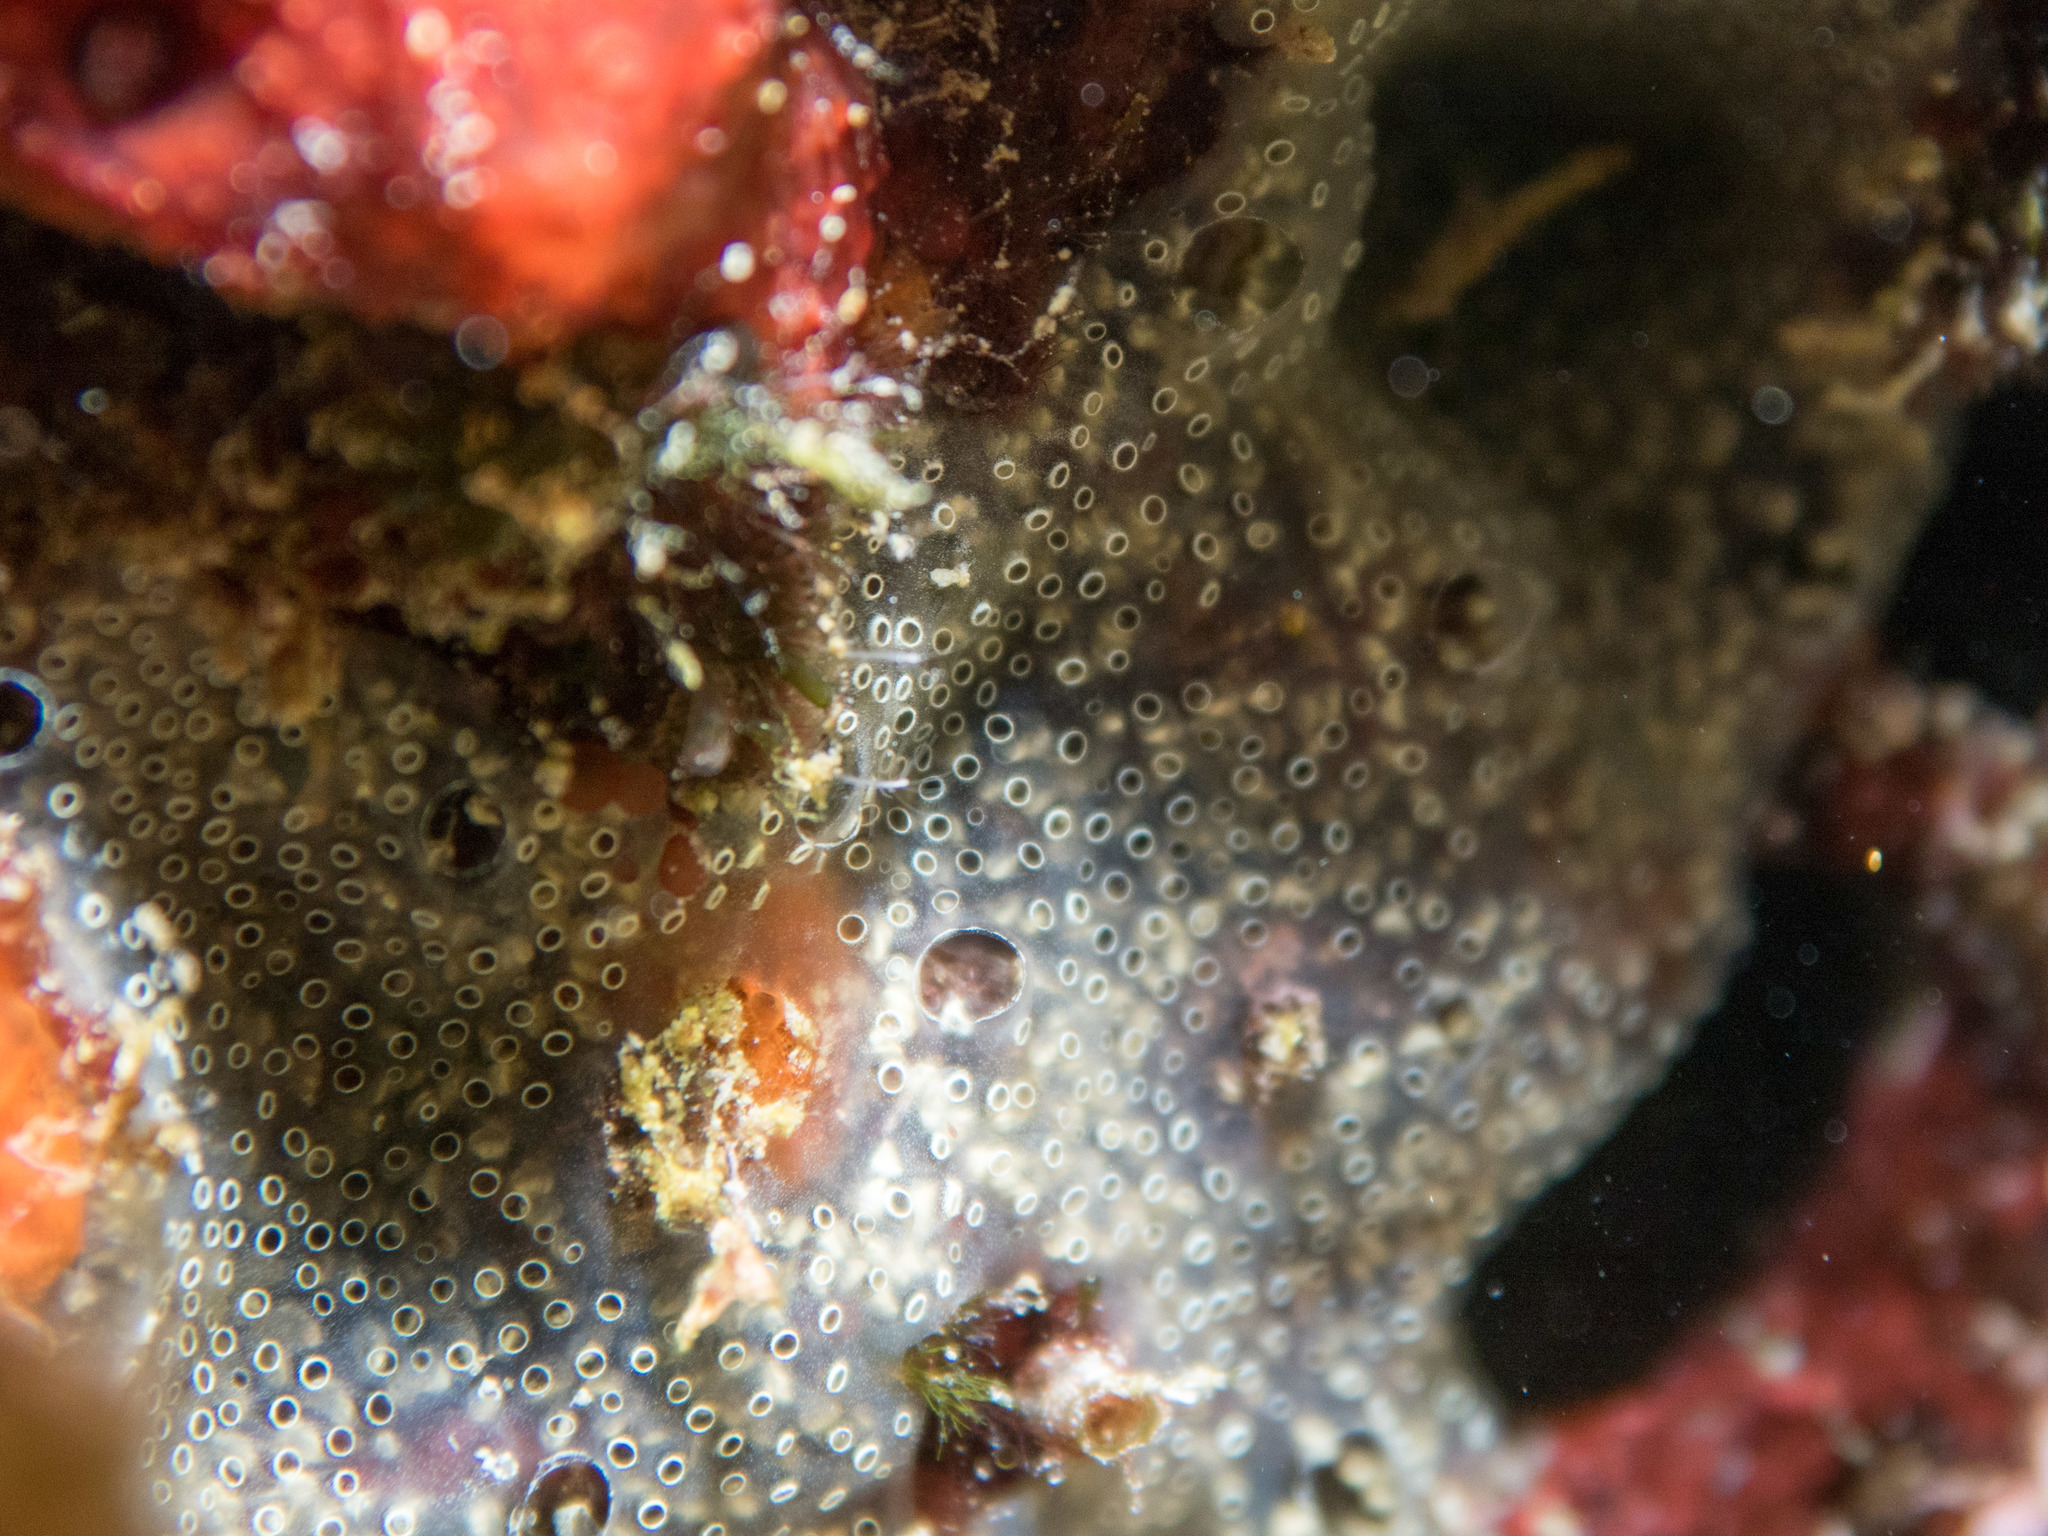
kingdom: Animalia
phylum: Chordata
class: Ascidiacea
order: Aplousobranchia
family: Didemnidae
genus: Diplosoma
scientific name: Diplosoma spongiforme
